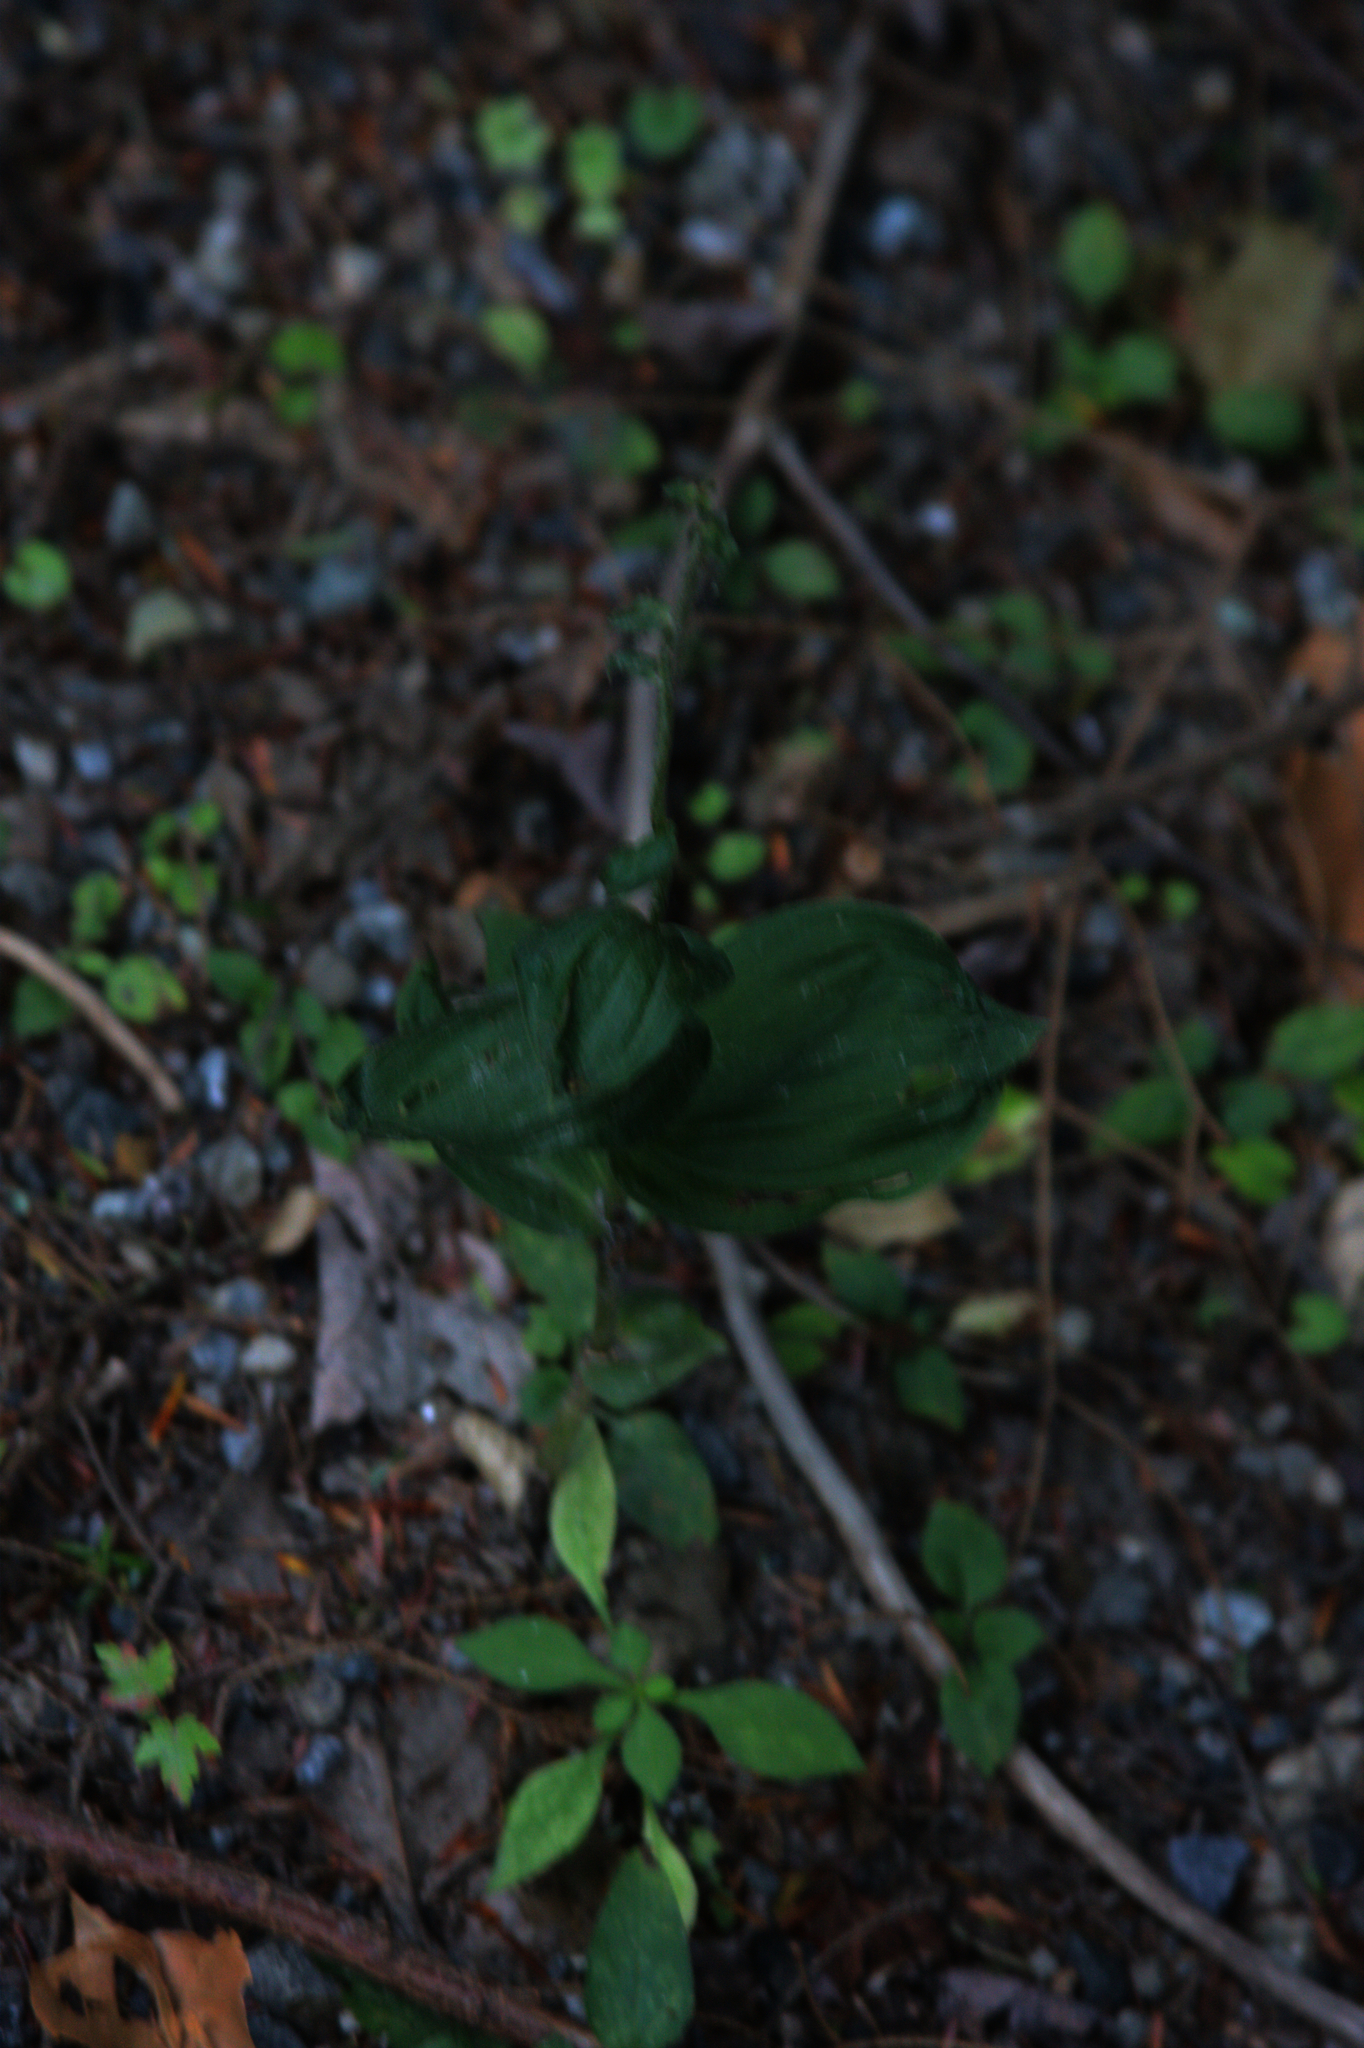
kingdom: Plantae
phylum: Tracheophyta
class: Liliopsida
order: Asparagales
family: Orchidaceae
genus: Epipactis
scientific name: Epipactis helleborine
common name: Broad-leaved helleborine
